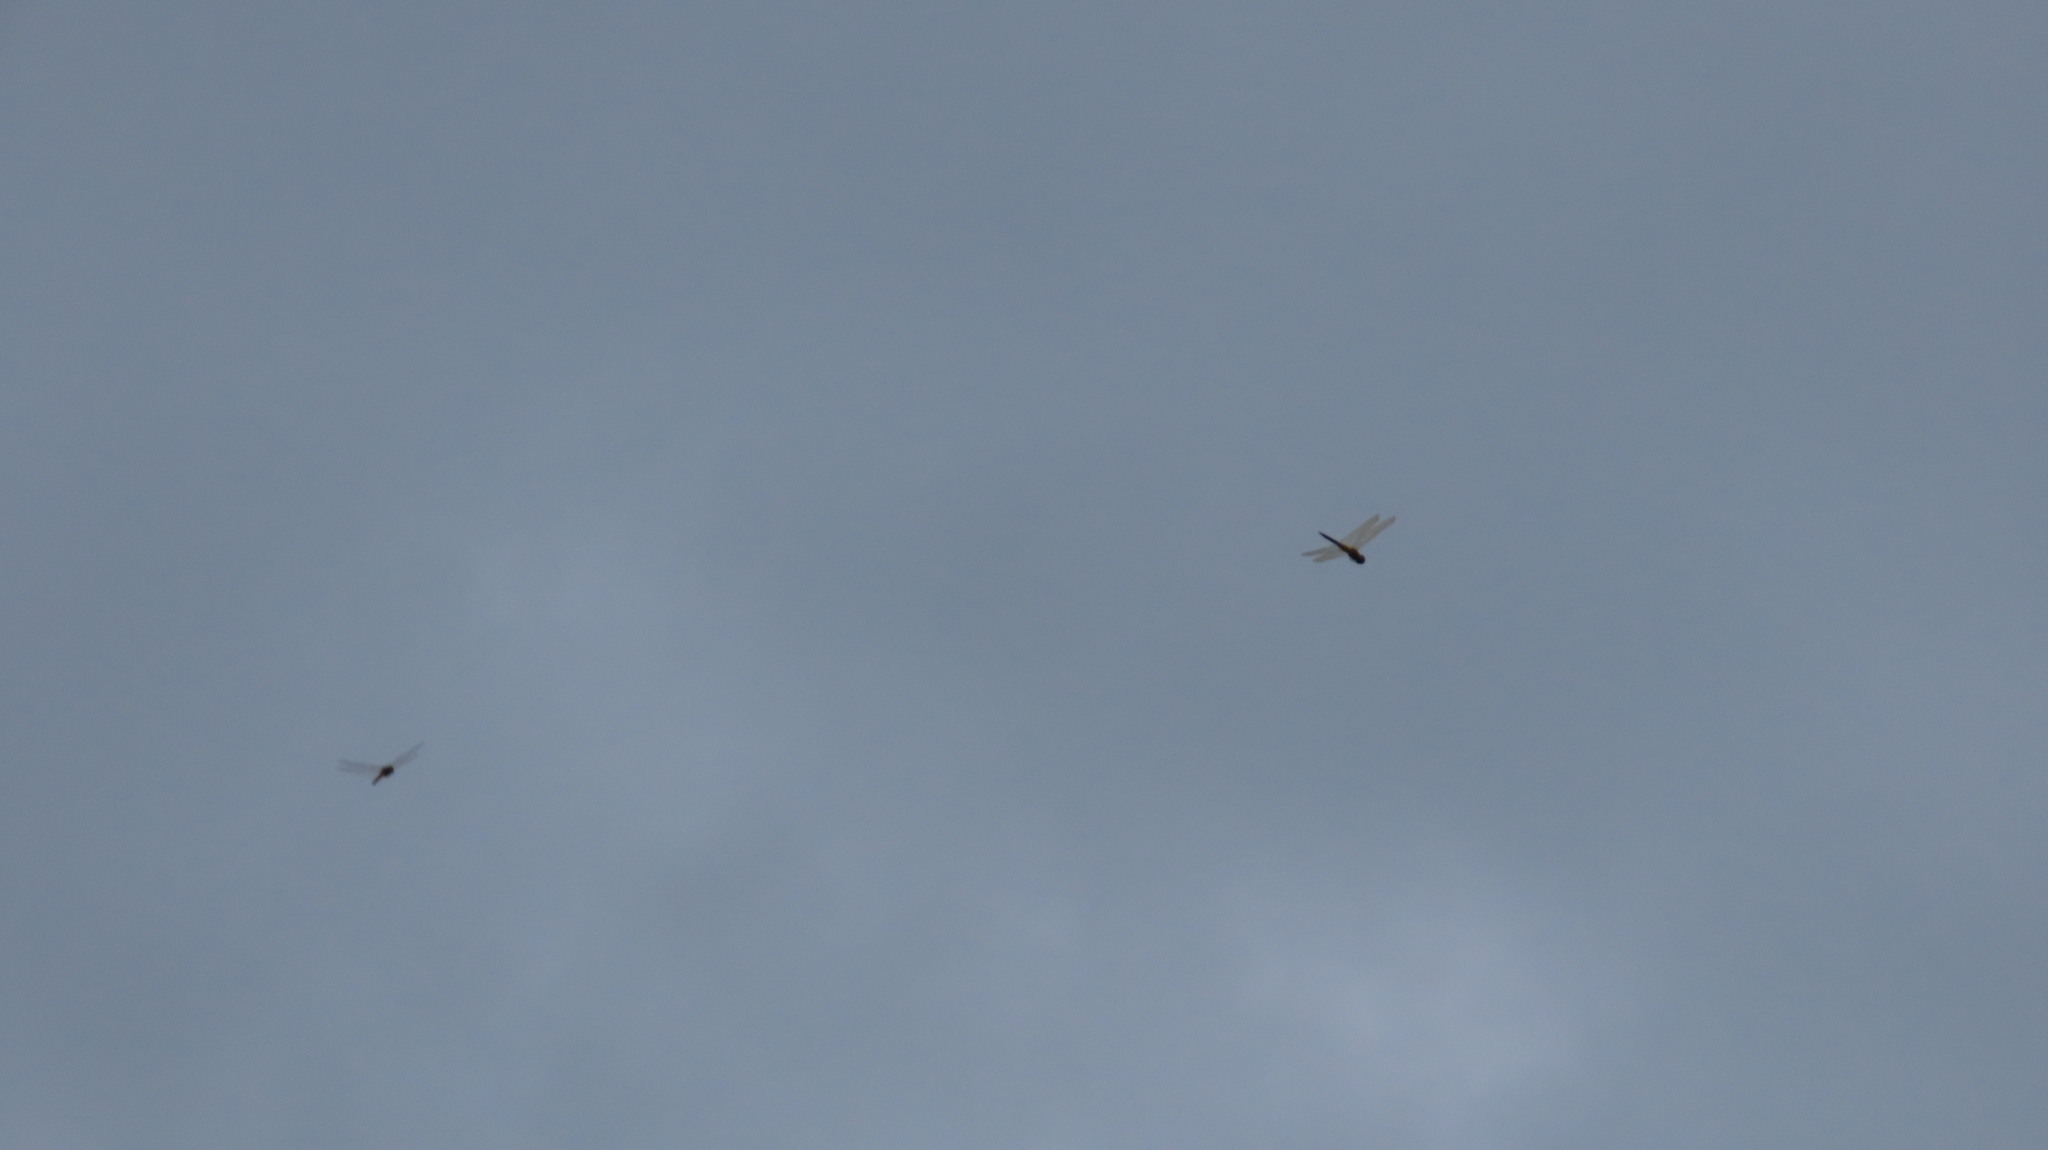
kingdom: Animalia
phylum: Arthropoda
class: Insecta
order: Odonata
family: Libellulidae
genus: Pantala
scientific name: Pantala flavescens
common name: Wandering glider
